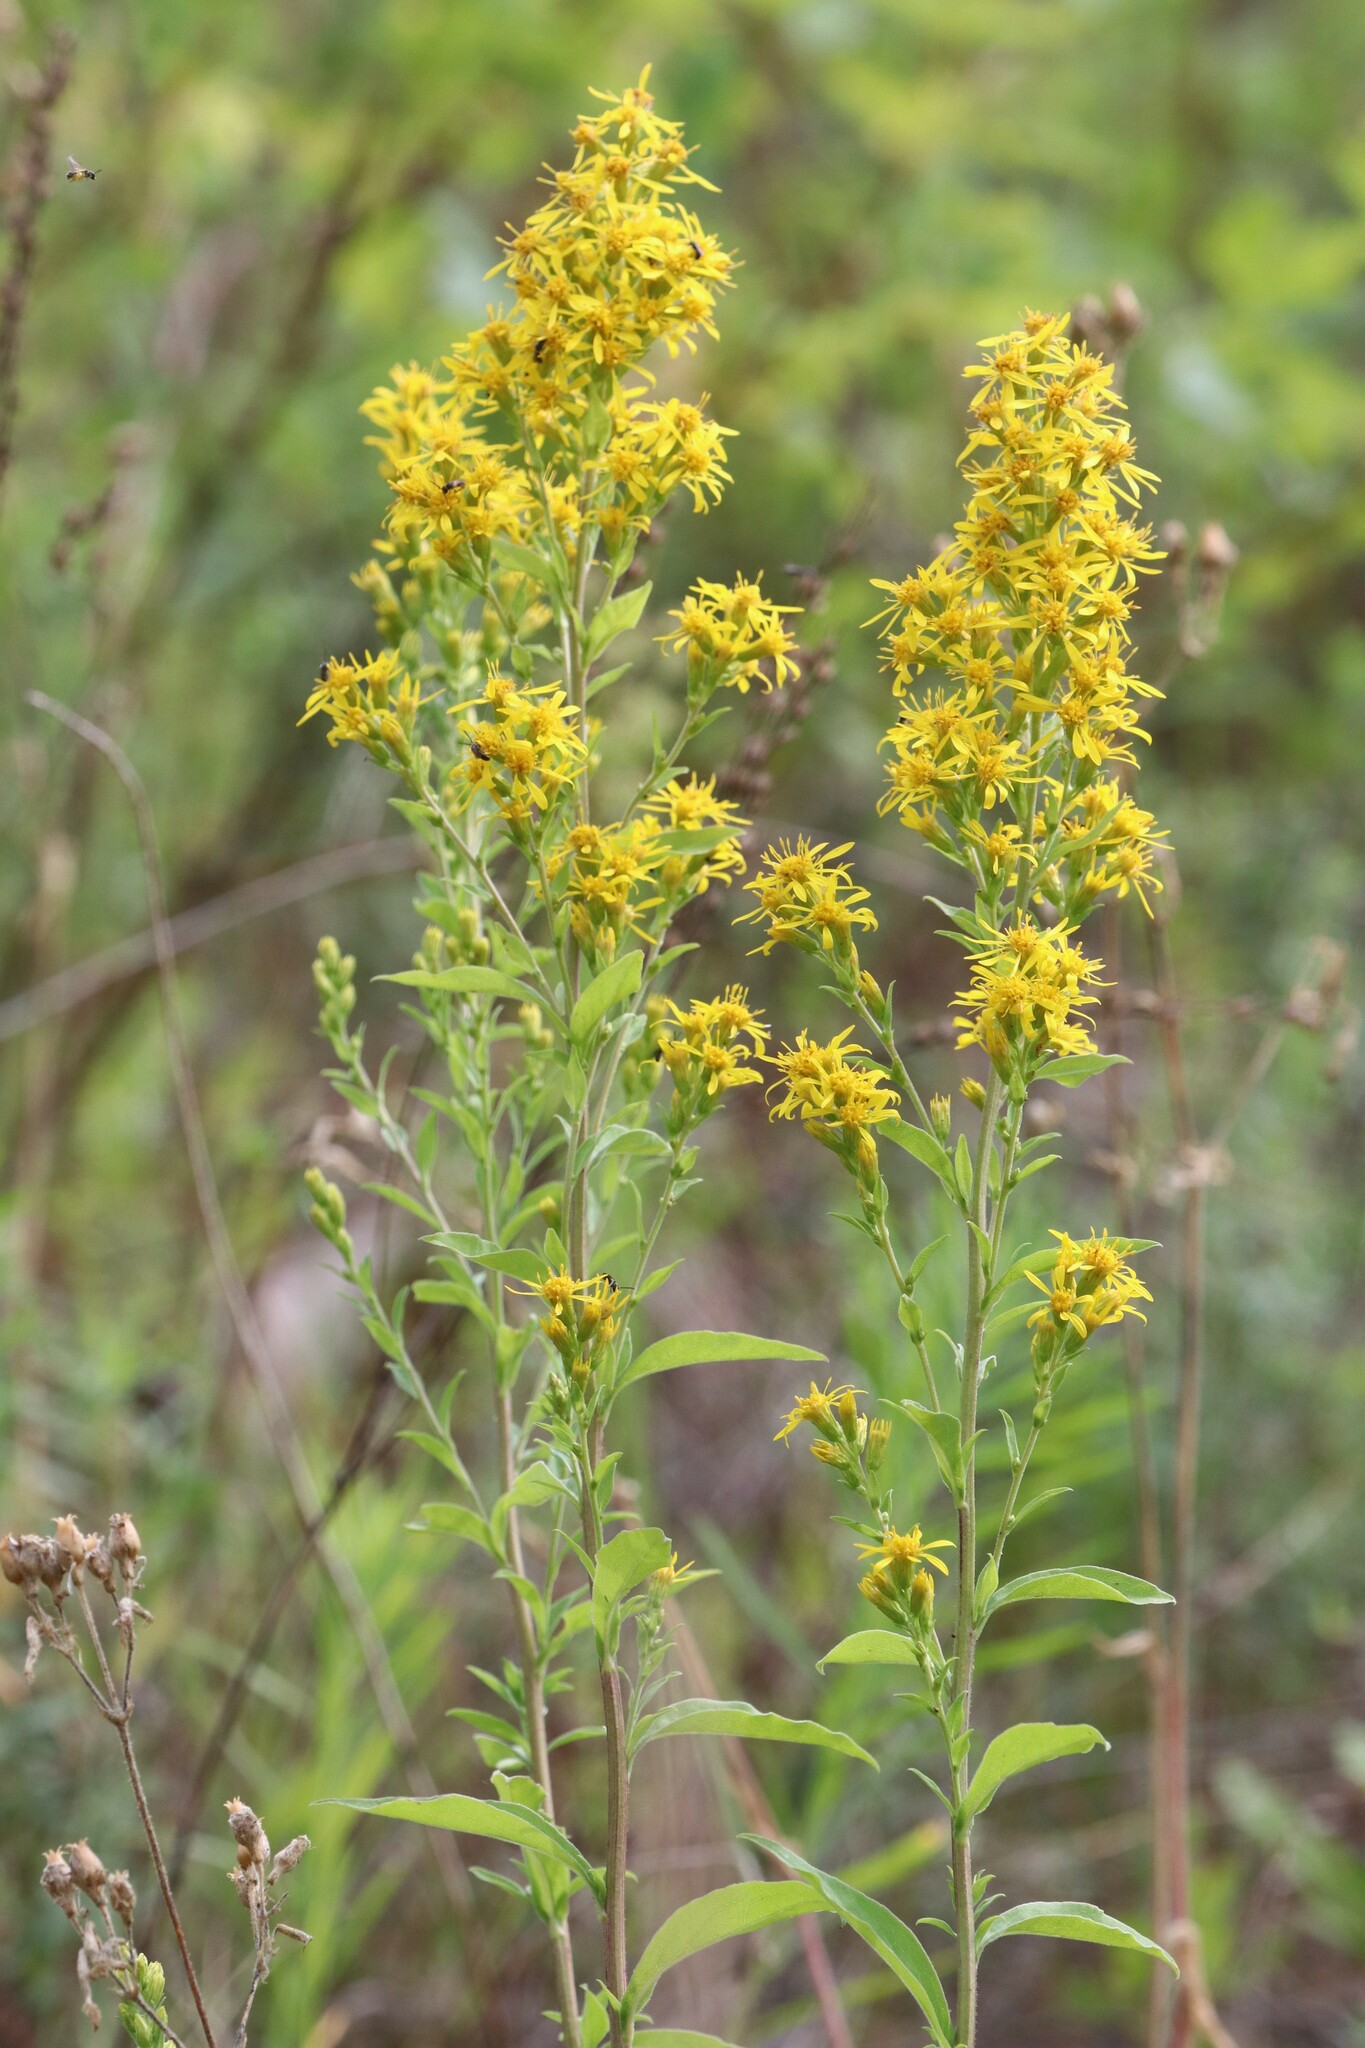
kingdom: Plantae
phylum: Tracheophyta
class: Magnoliopsida
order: Asterales
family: Asteraceae
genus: Solidago
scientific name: Solidago virgaurea
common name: Goldenrod
